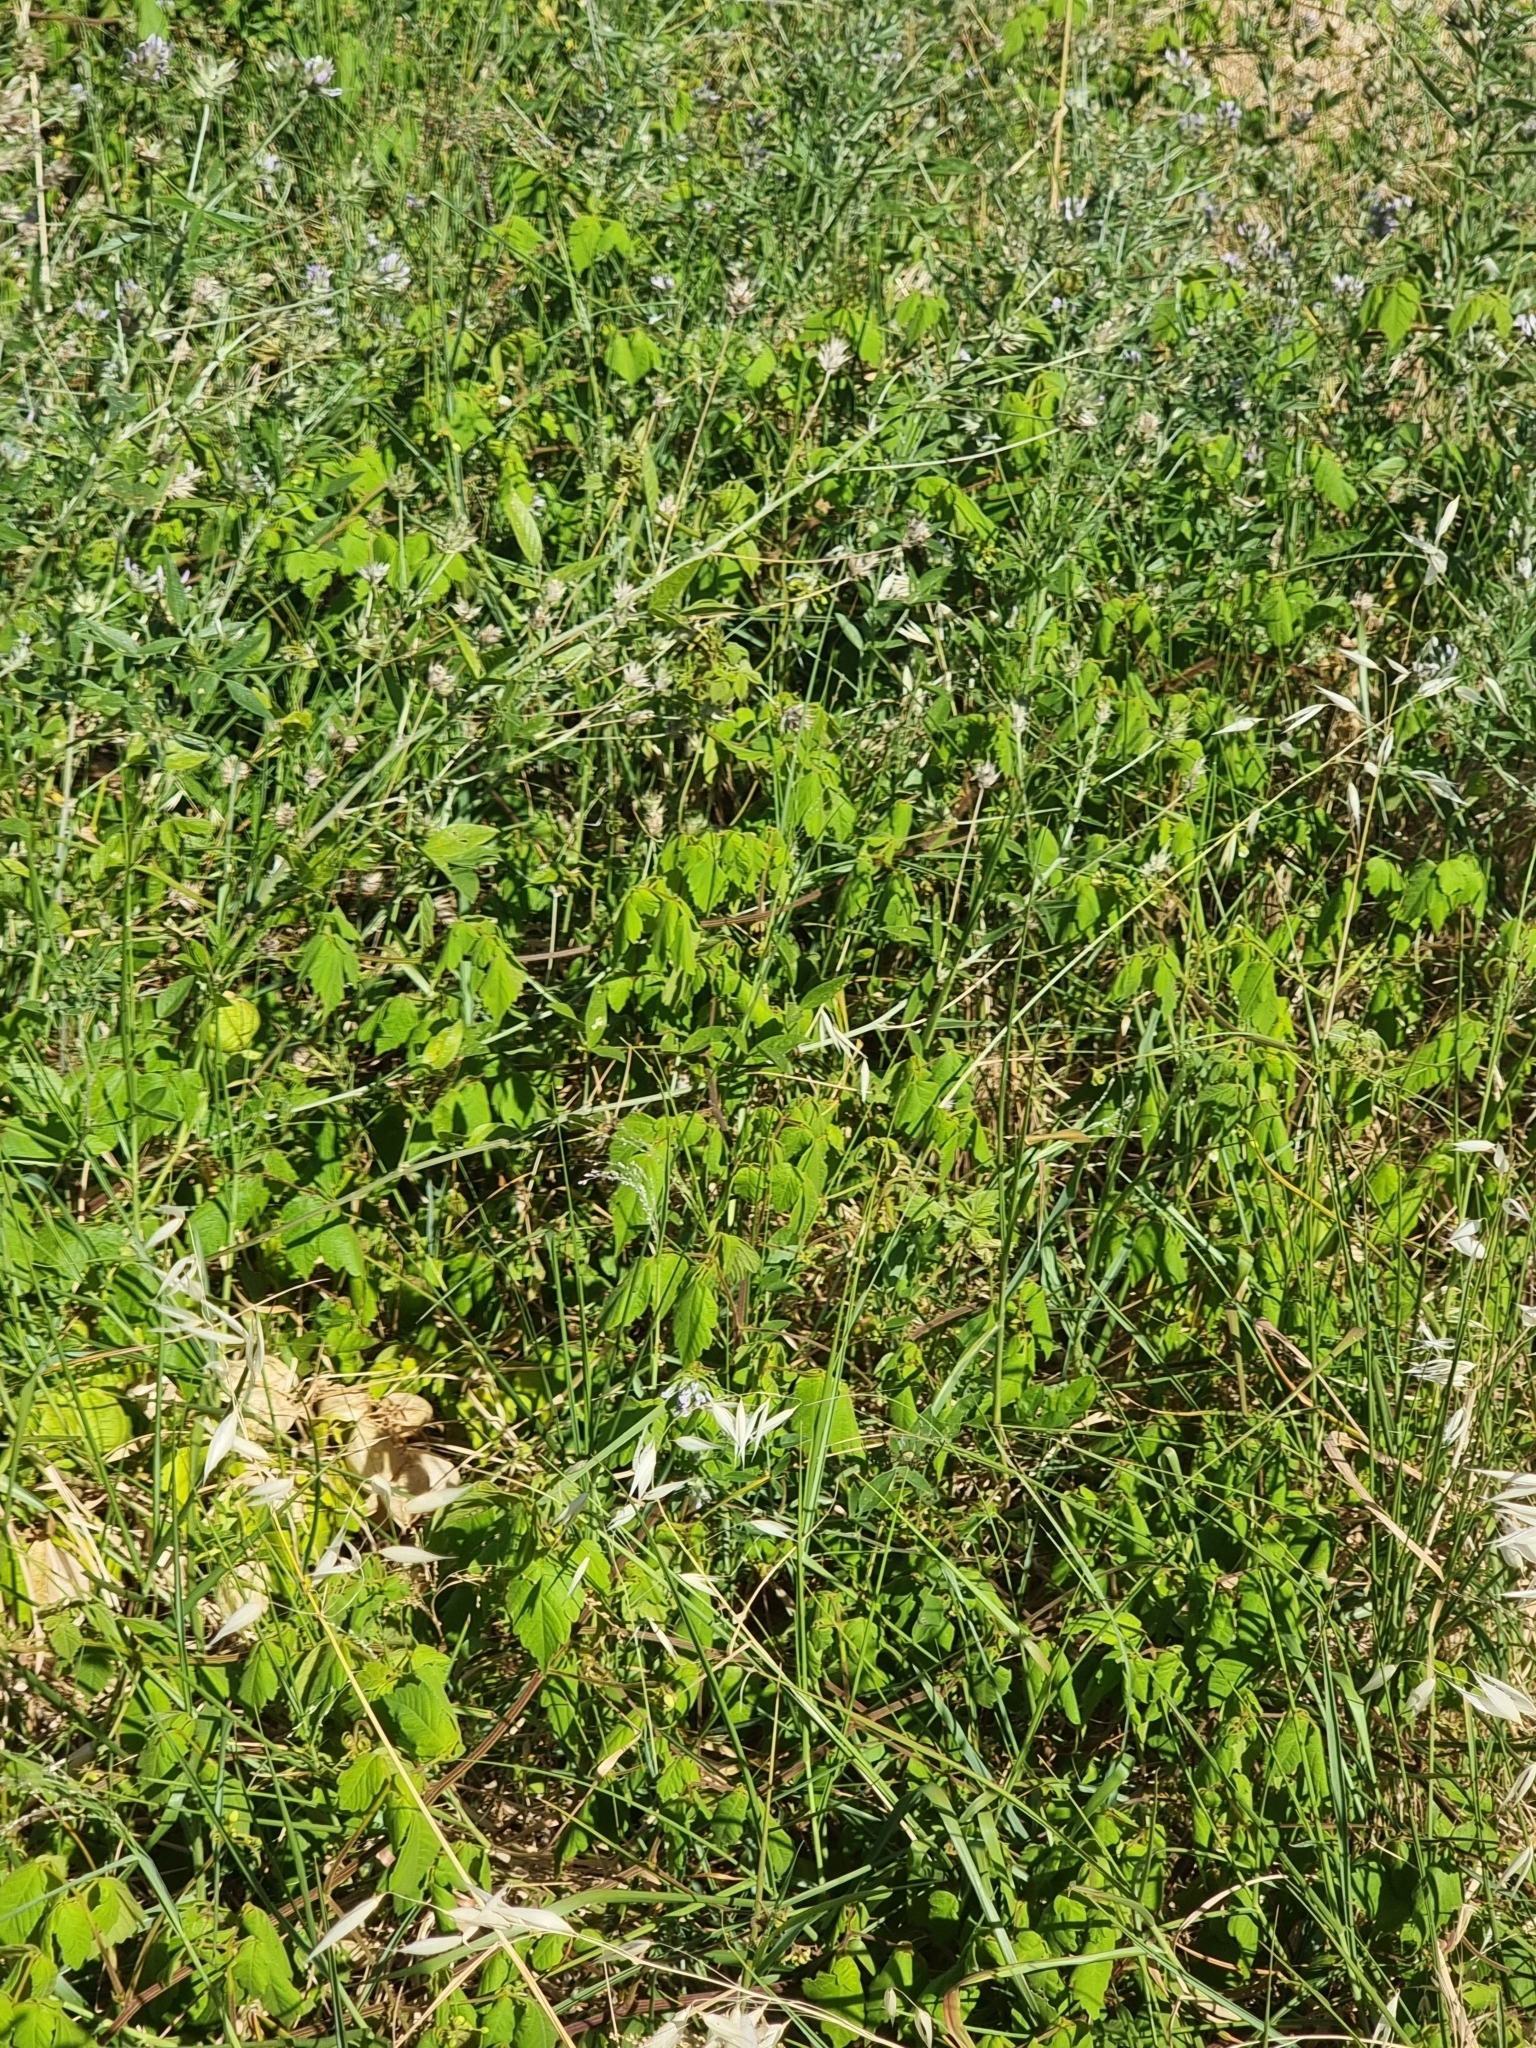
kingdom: Plantae
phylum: Tracheophyta
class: Magnoliopsida
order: Sapindales
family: Sapindaceae
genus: Cardiospermum
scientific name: Cardiospermum grandiflorum
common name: Balloon vine
